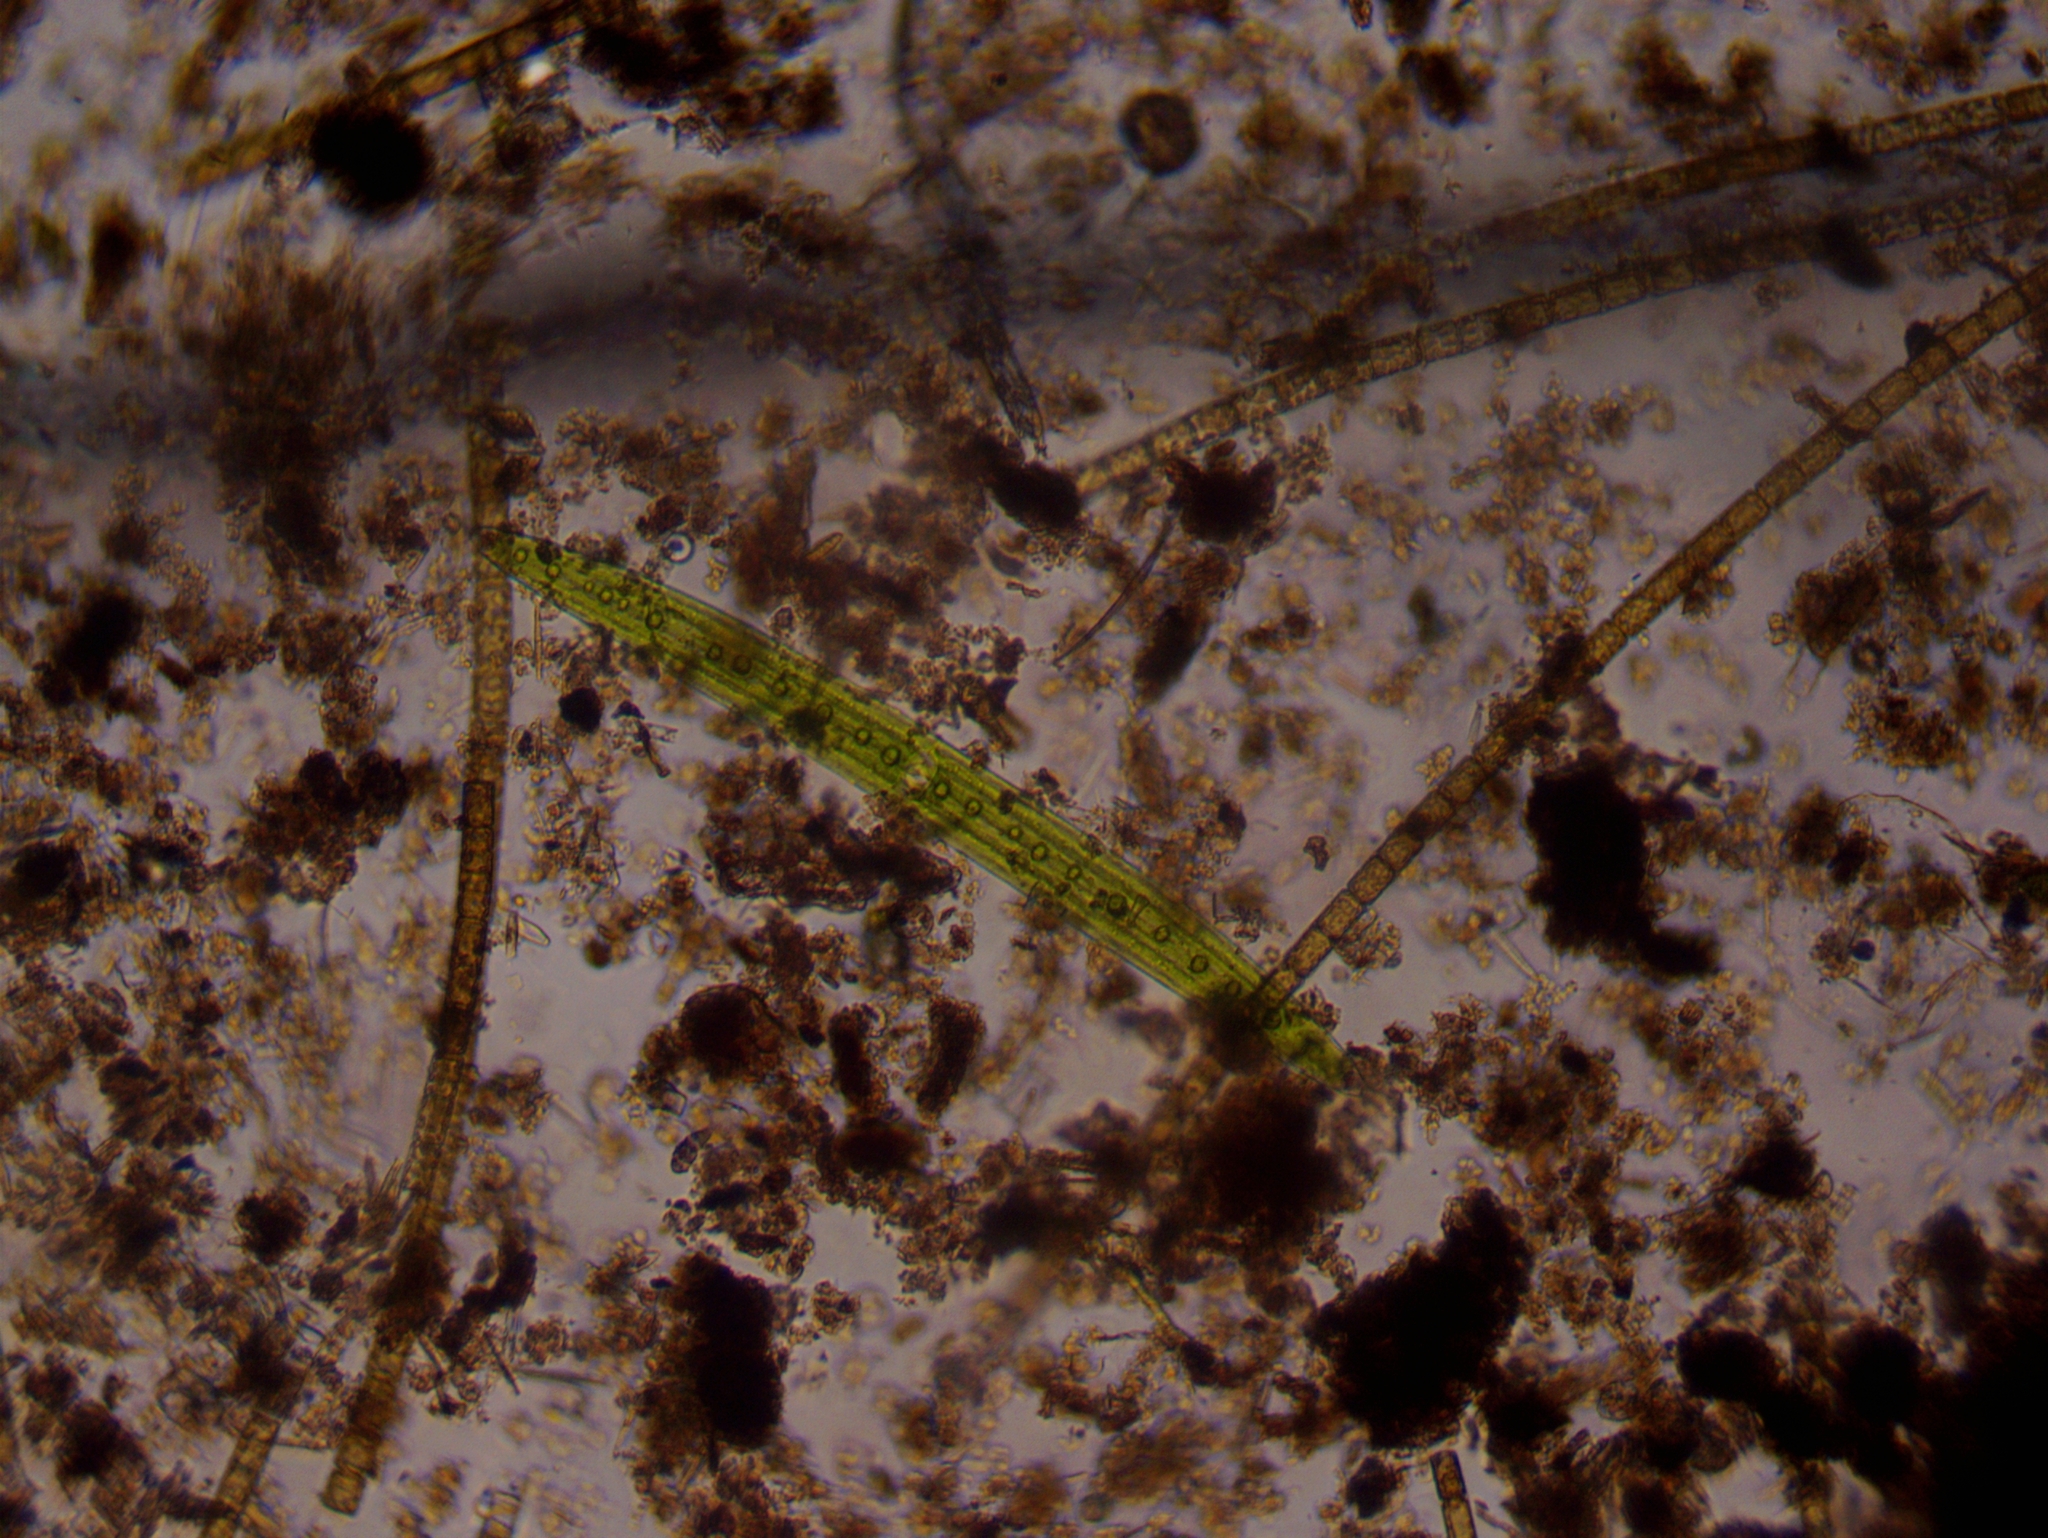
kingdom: Plantae
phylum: Charophyta
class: Zygnematophyceae
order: Zygnematales
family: Closteriaceae
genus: Closterium
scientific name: Closterium acerosum
